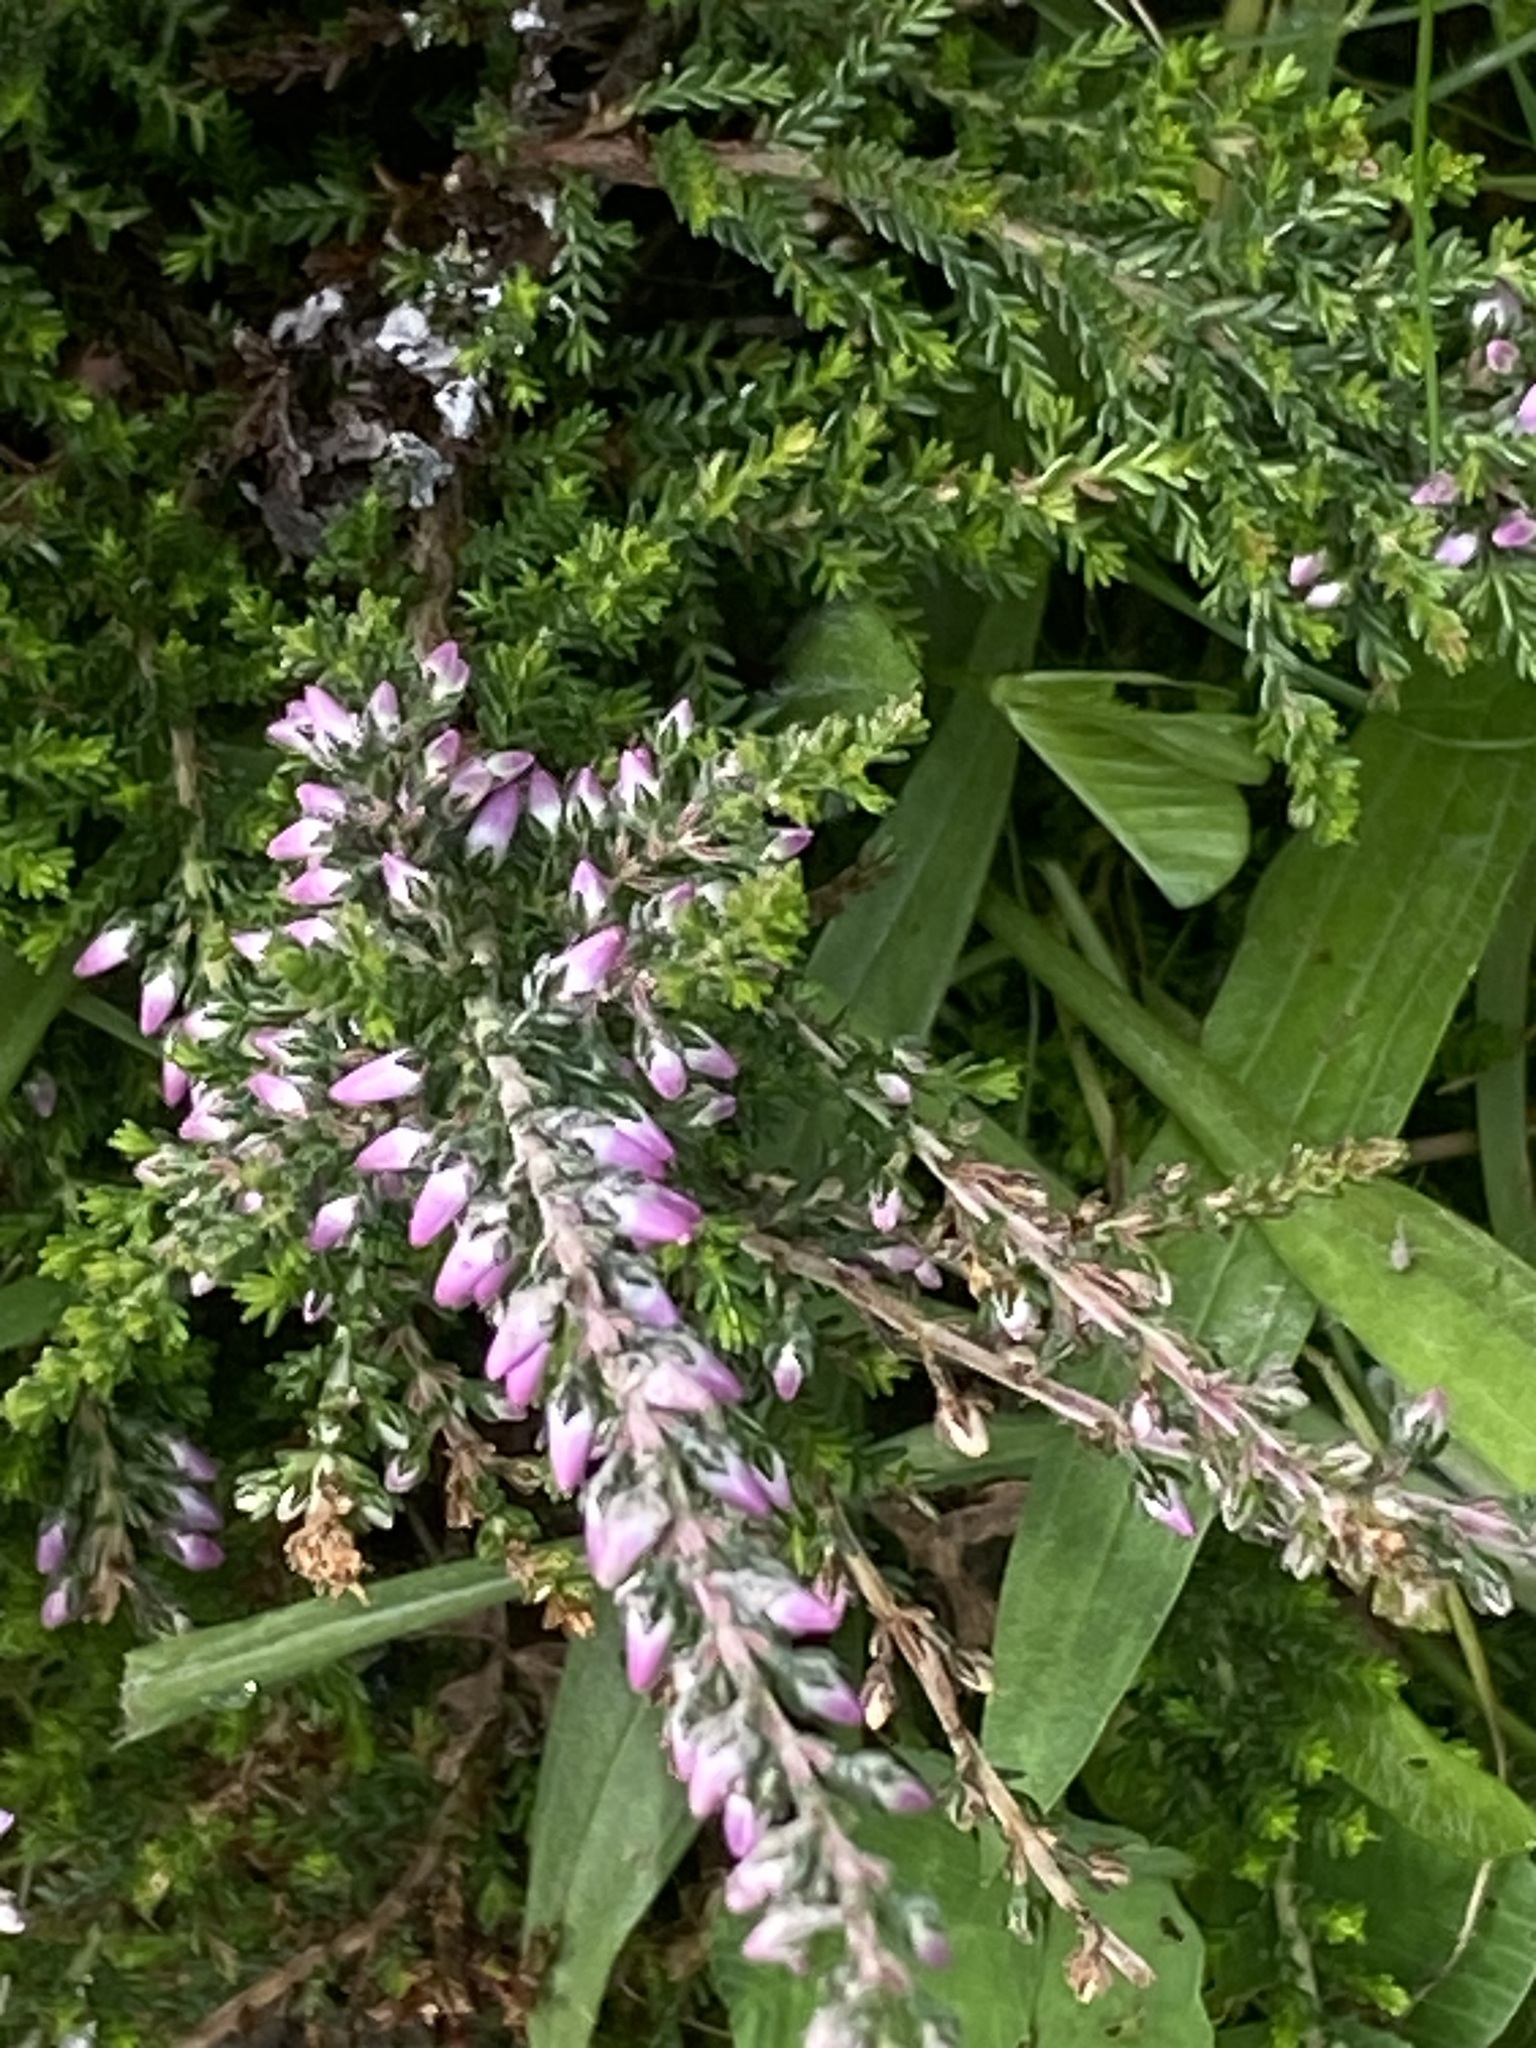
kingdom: Plantae
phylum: Tracheophyta
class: Magnoliopsida
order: Ericales
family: Ericaceae
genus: Calluna
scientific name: Calluna vulgaris
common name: Heather
